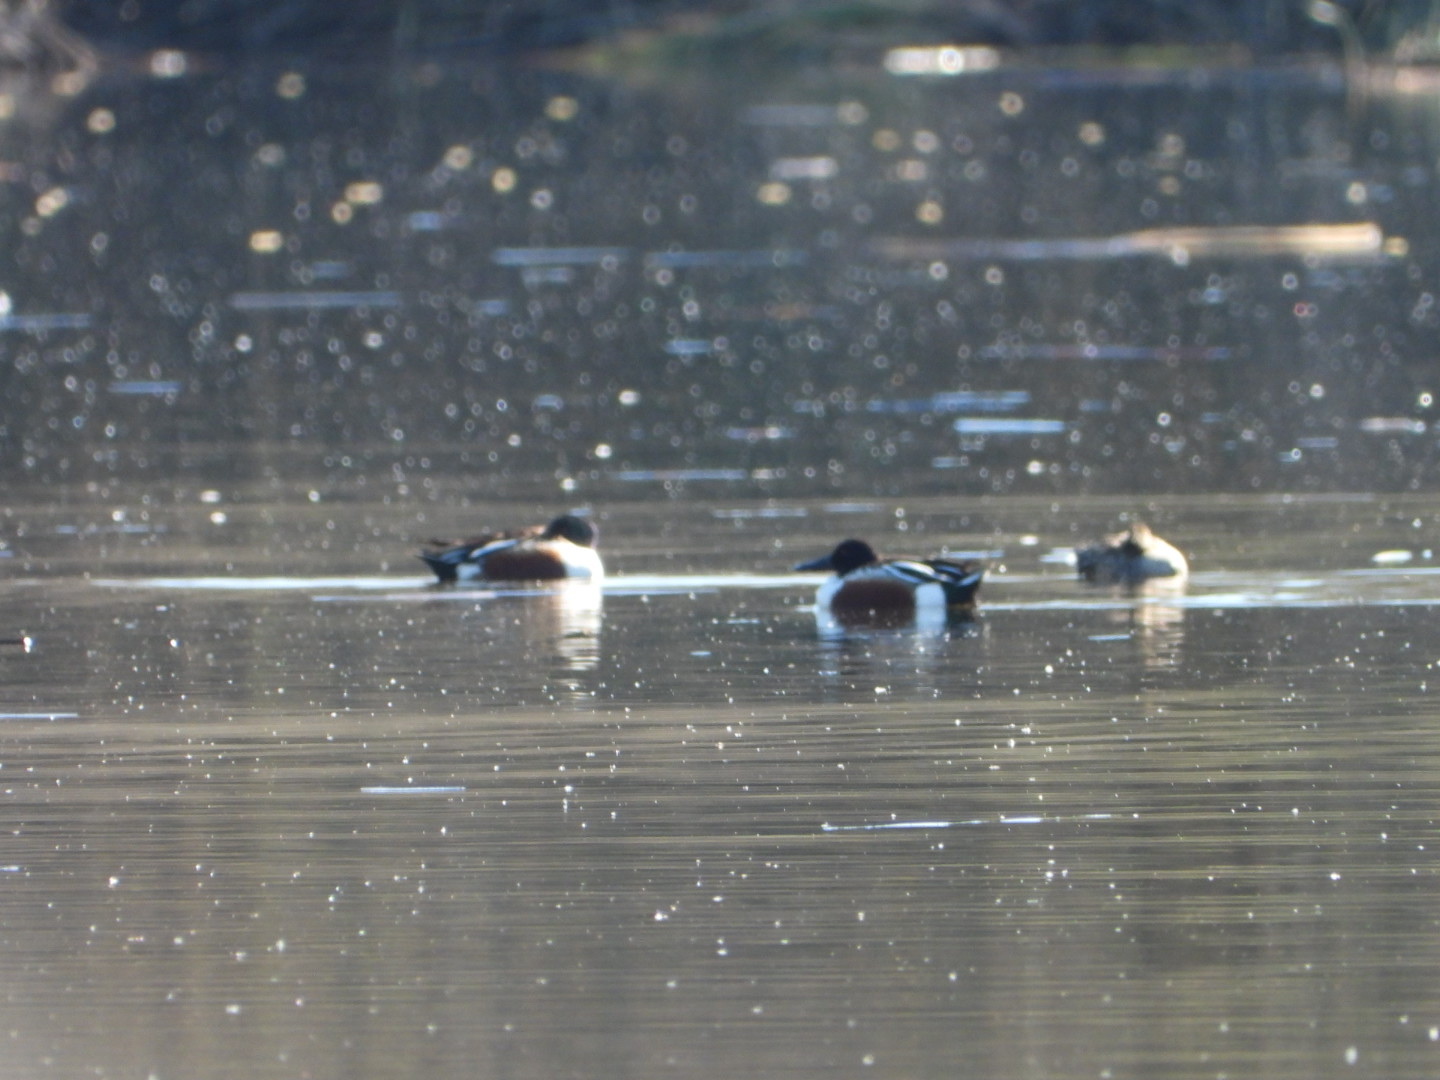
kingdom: Animalia
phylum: Chordata
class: Aves
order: Anseriformes
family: Anatidae
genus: Spatula
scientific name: Spatula clypeata
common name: Northern shoveler
